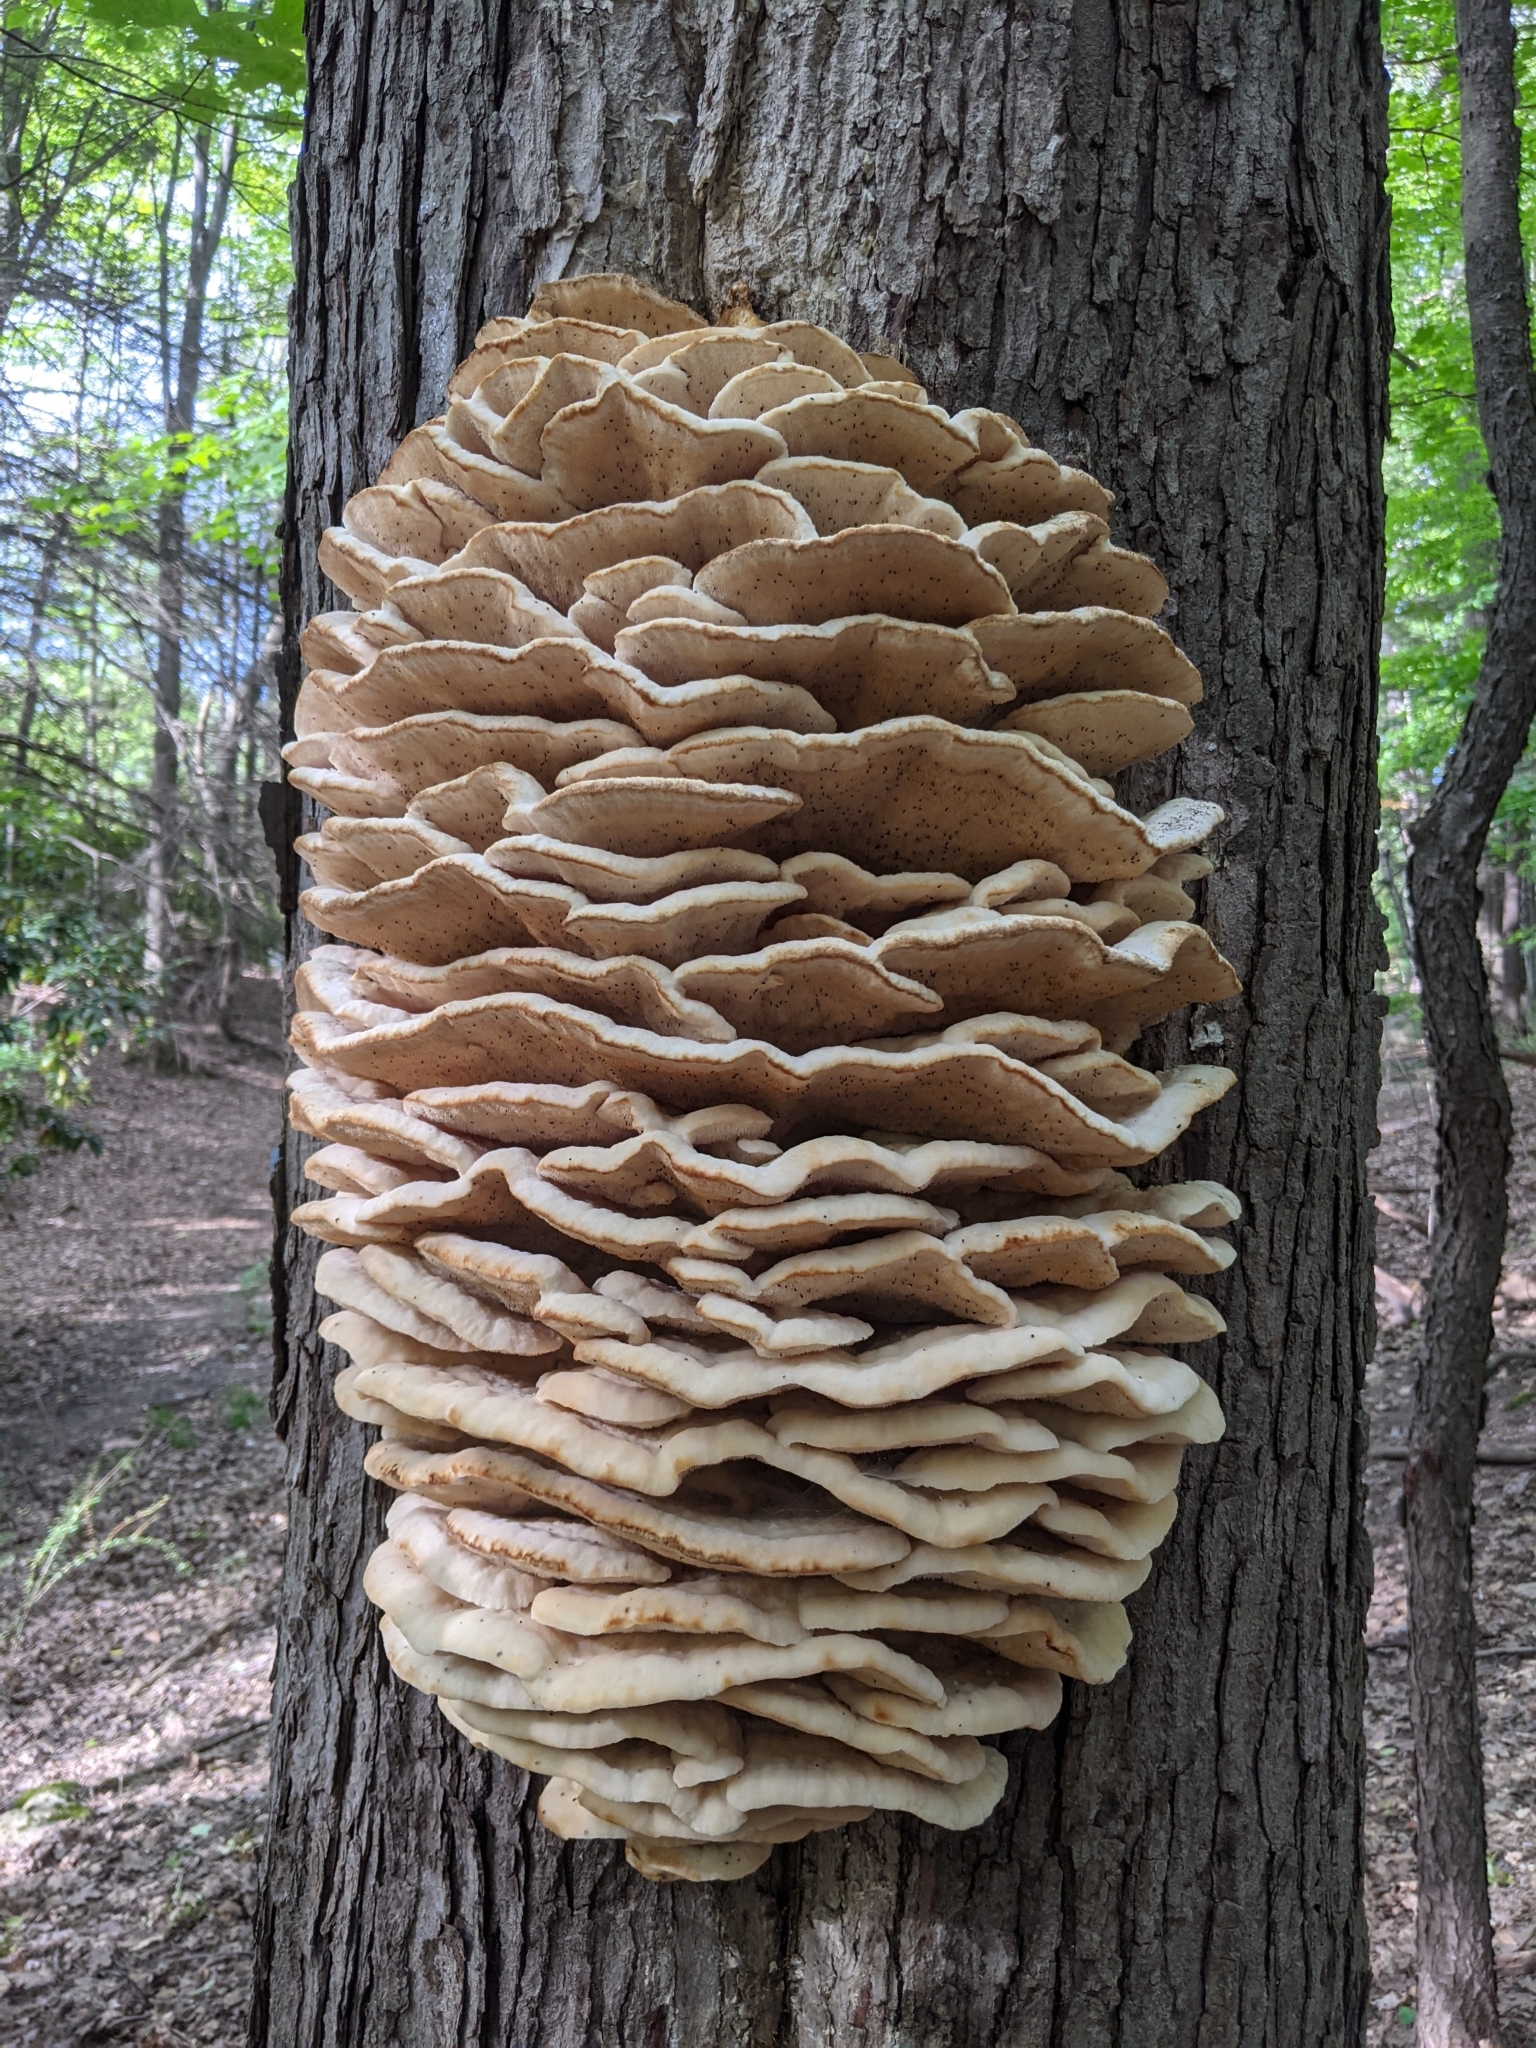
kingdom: Fungi
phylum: Basidiomycota
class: Agaricomycetes
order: Polyporales
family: Meruliaceae
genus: Climacodon
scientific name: Climacodon septentrionalis
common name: Northern tooth
